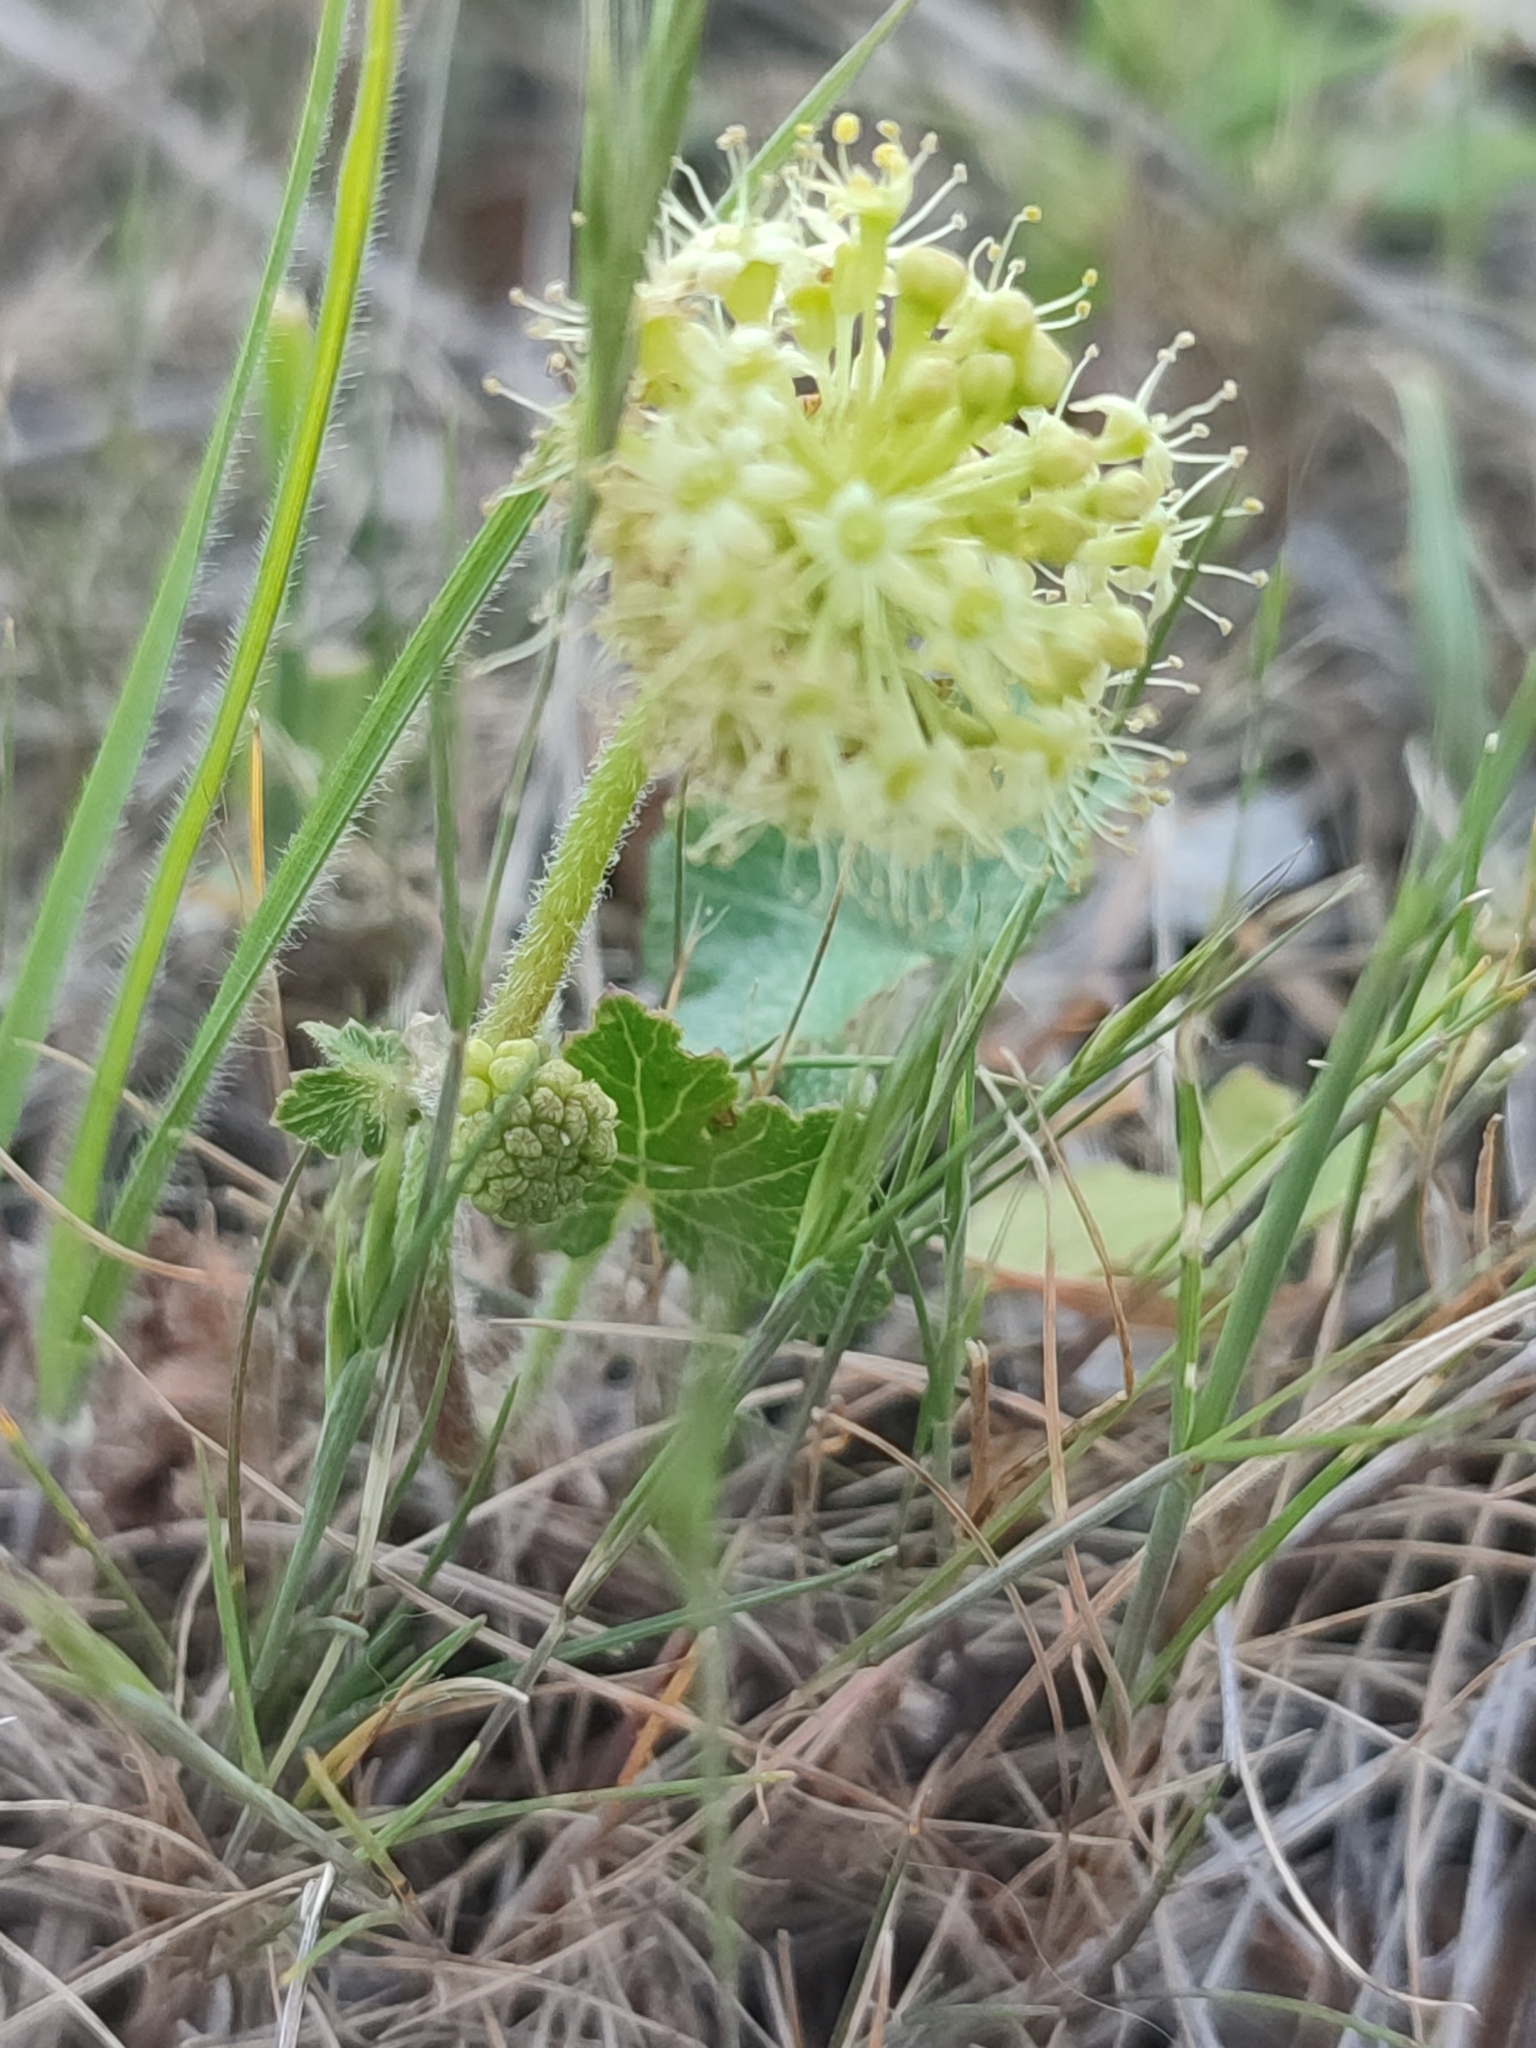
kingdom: Plantae
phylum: Tracheophyta
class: Magnoliopsida
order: Apiales
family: Araliaceae
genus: Hydrocotyle
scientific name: Hydrocotyle laxiflora
